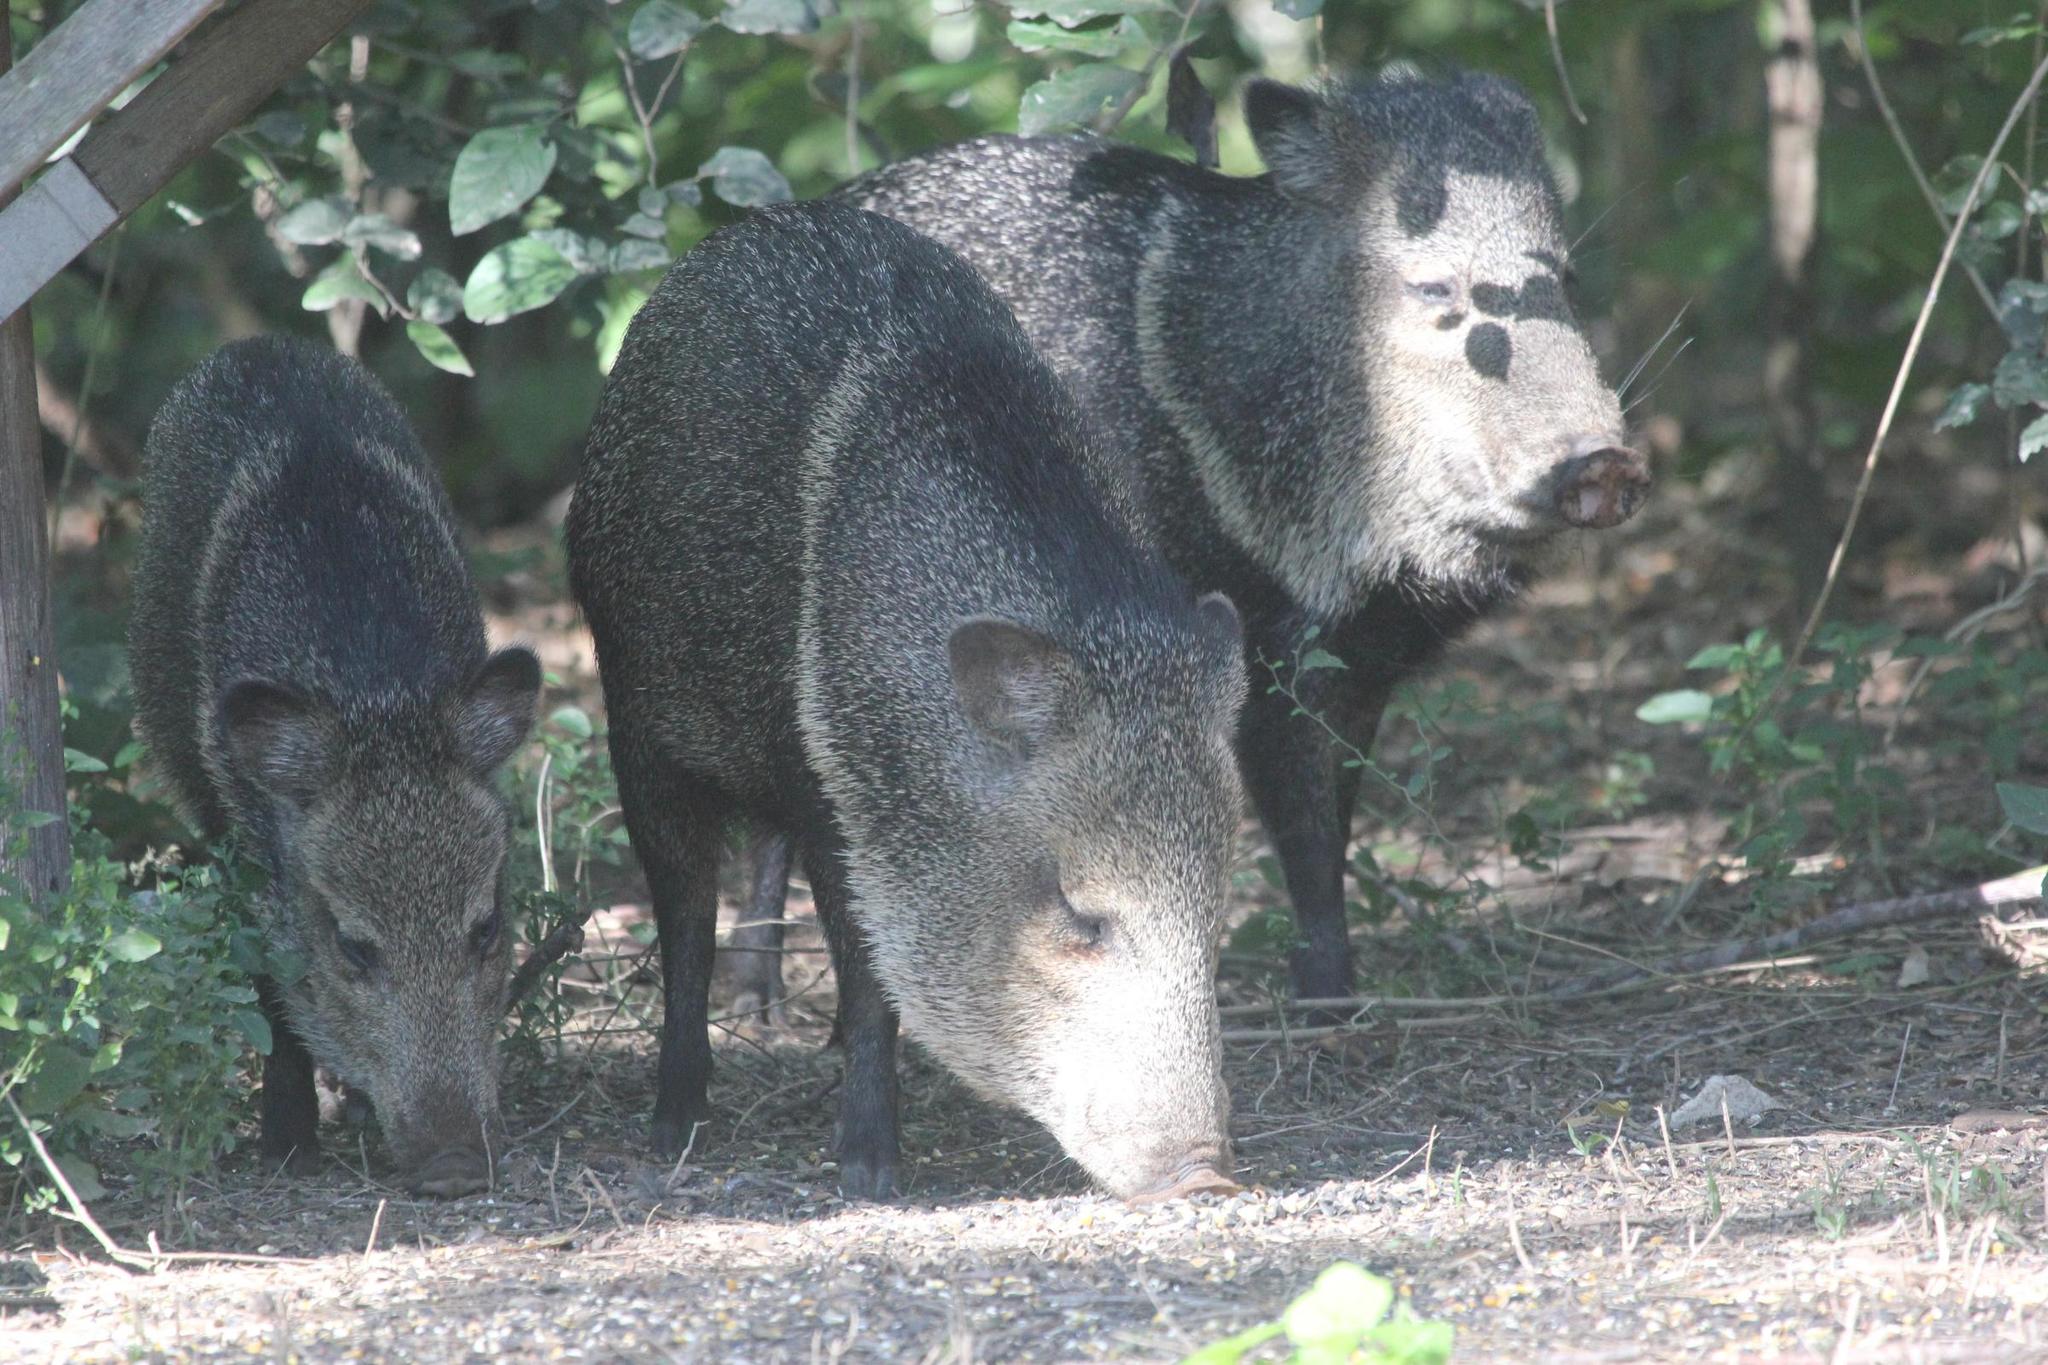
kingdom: Animalia
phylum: Chordata
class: Mammalia
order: Artiodactyla
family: Tayassuidae
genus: Pecari
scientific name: Pecari tajacu
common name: Collared peccary
